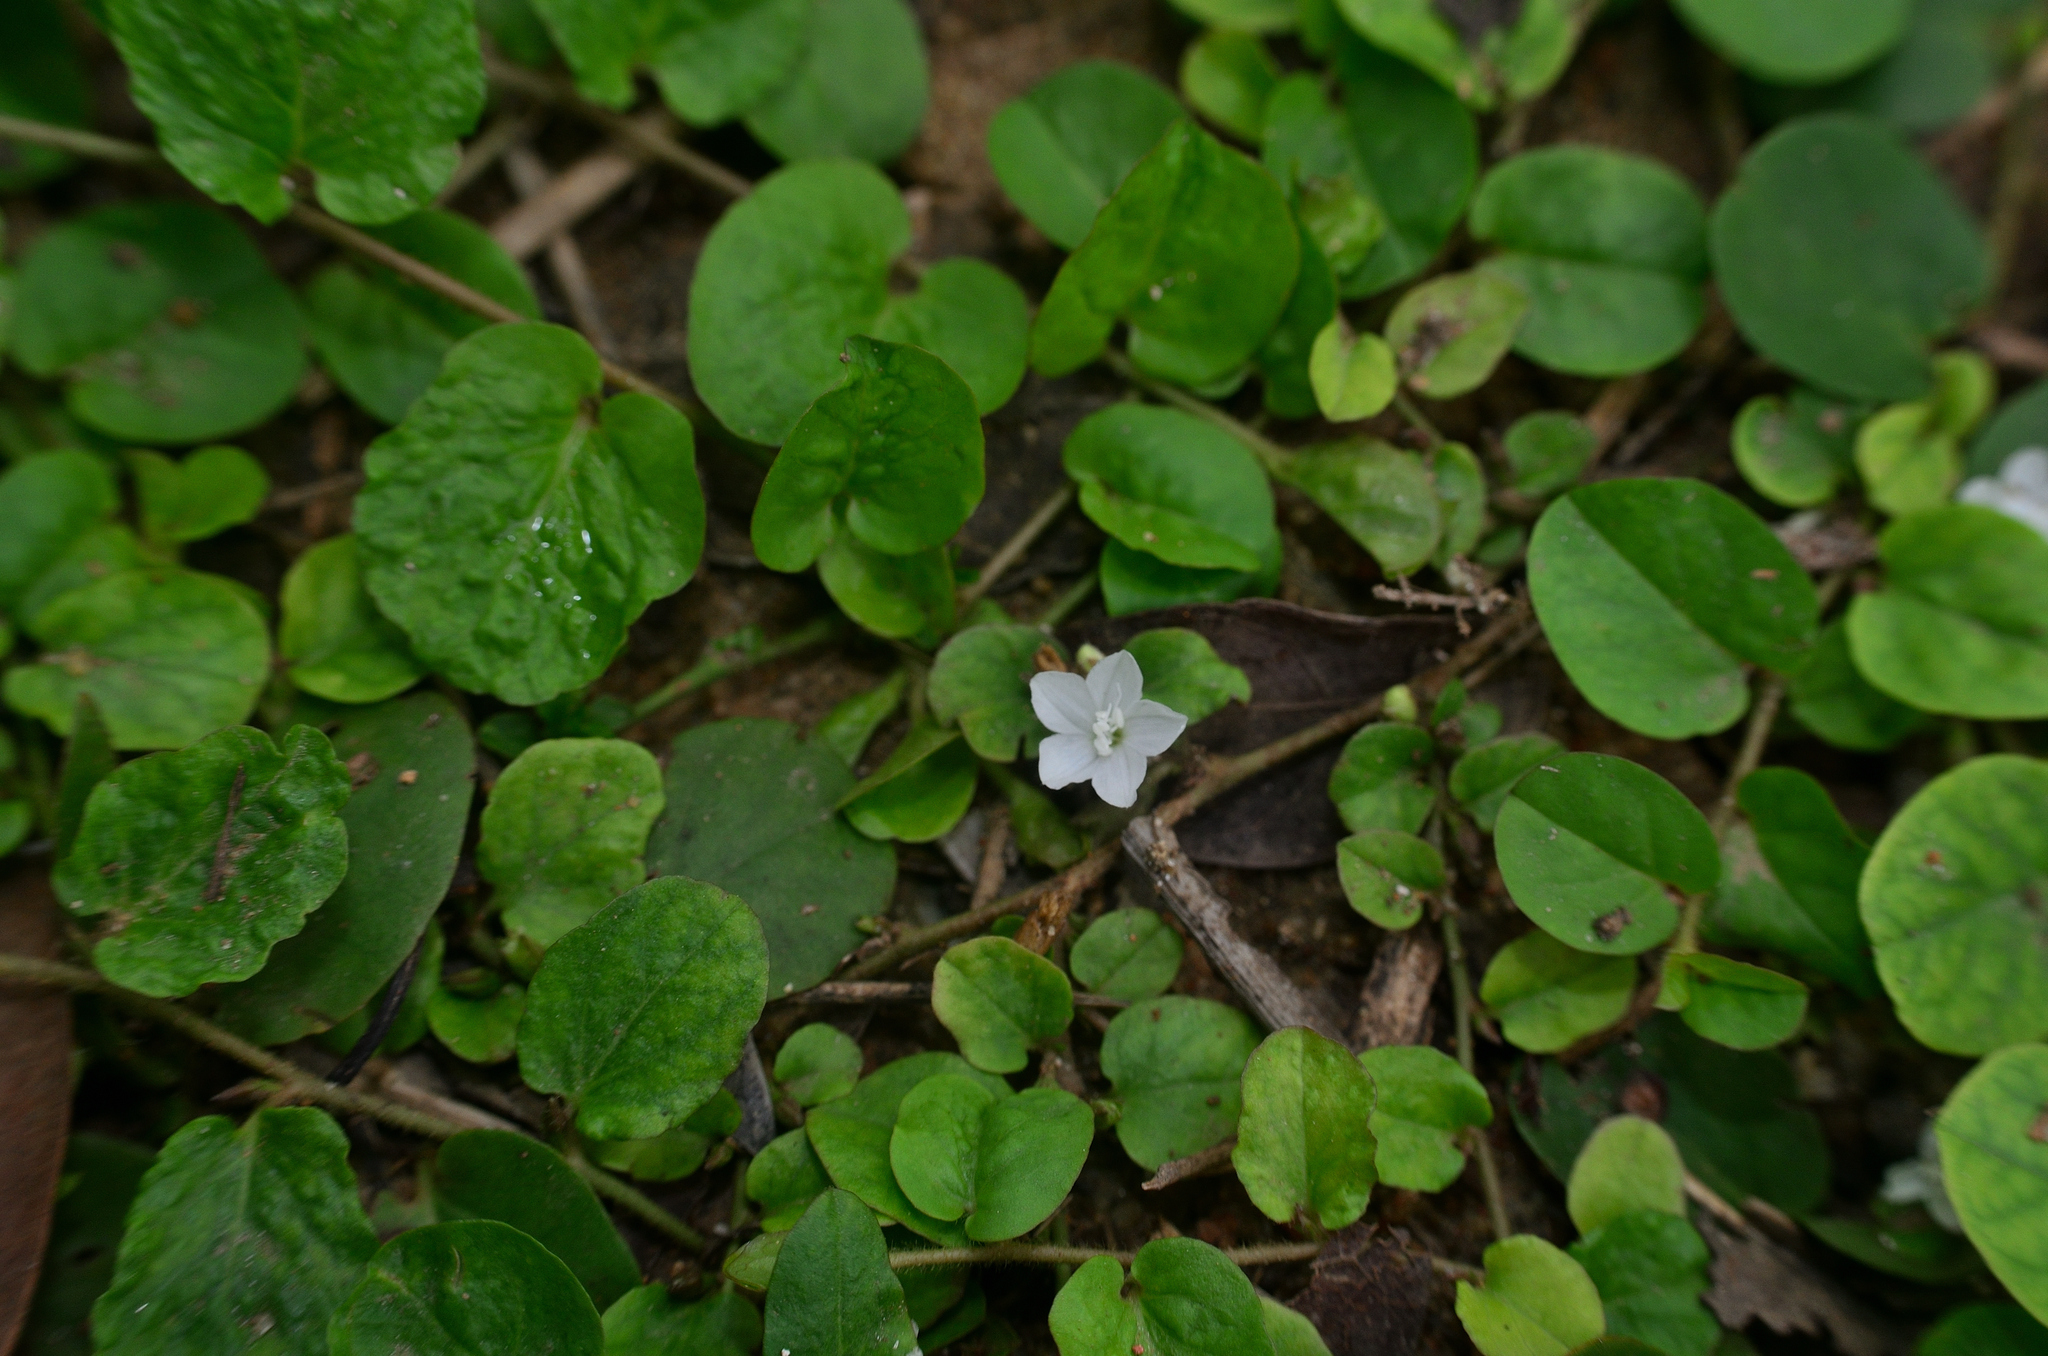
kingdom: Plantae
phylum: Tracheophyta
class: Magnoliopsida
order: Solanales
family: Convolvulaceae
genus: Evolvulus
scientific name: Evolvulus nummularius
